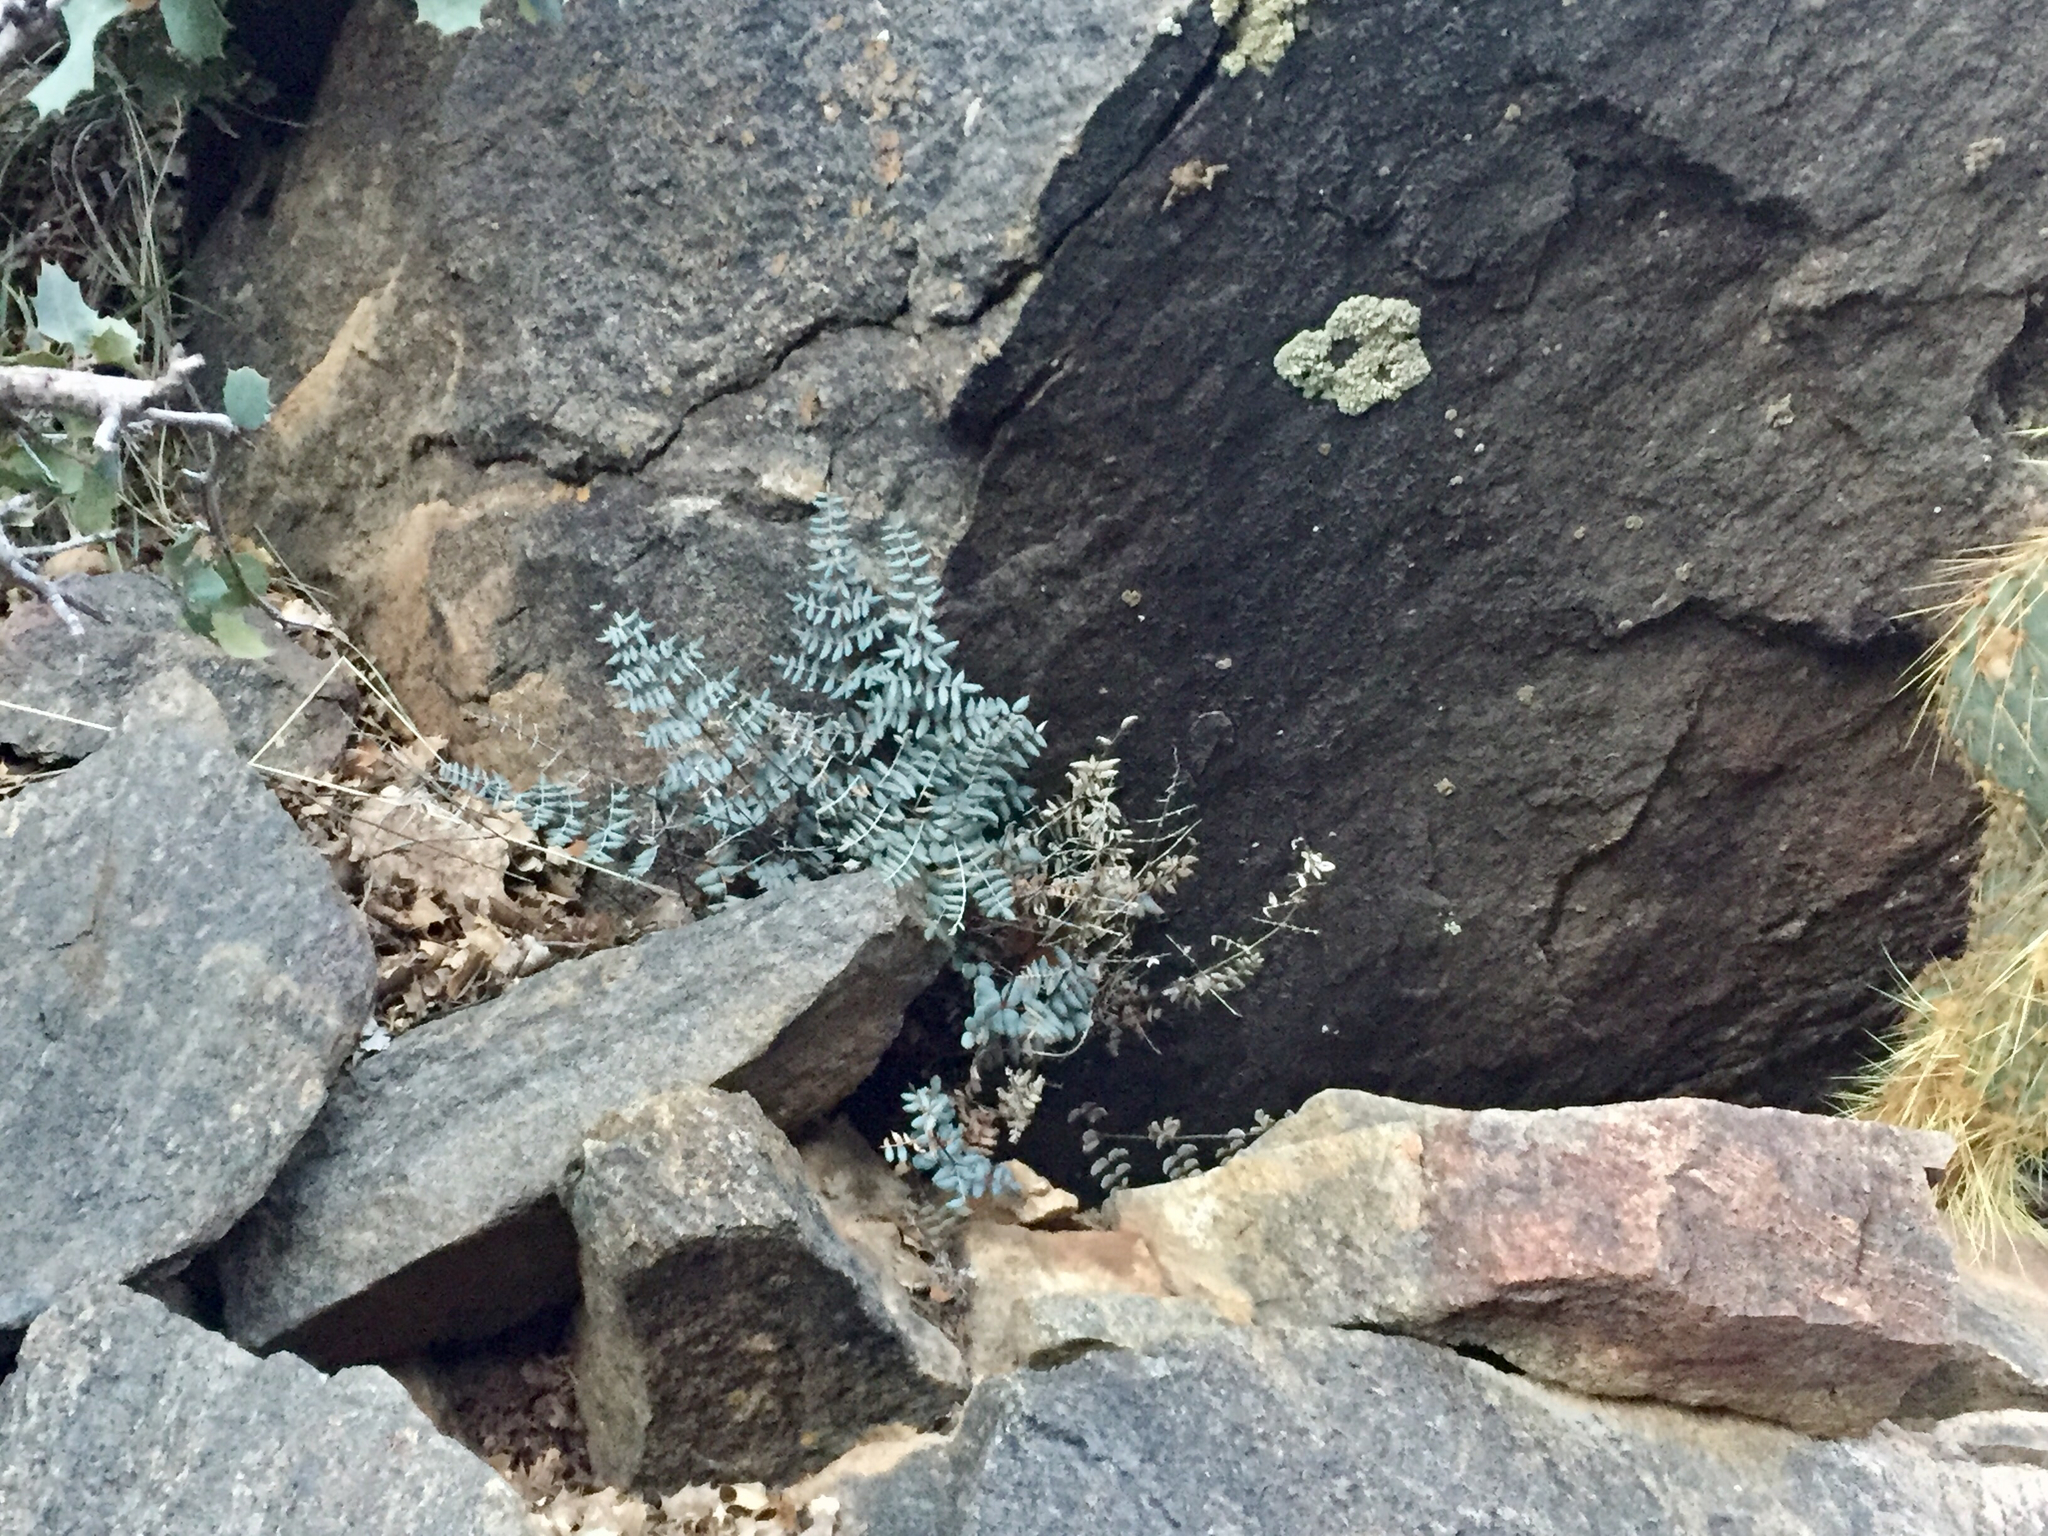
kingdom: Plantae
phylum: Tracheophyta
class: Polypodiopsida
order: Polypodiales
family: Pteridaceae
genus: Pellaea
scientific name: Pellaea truncata
